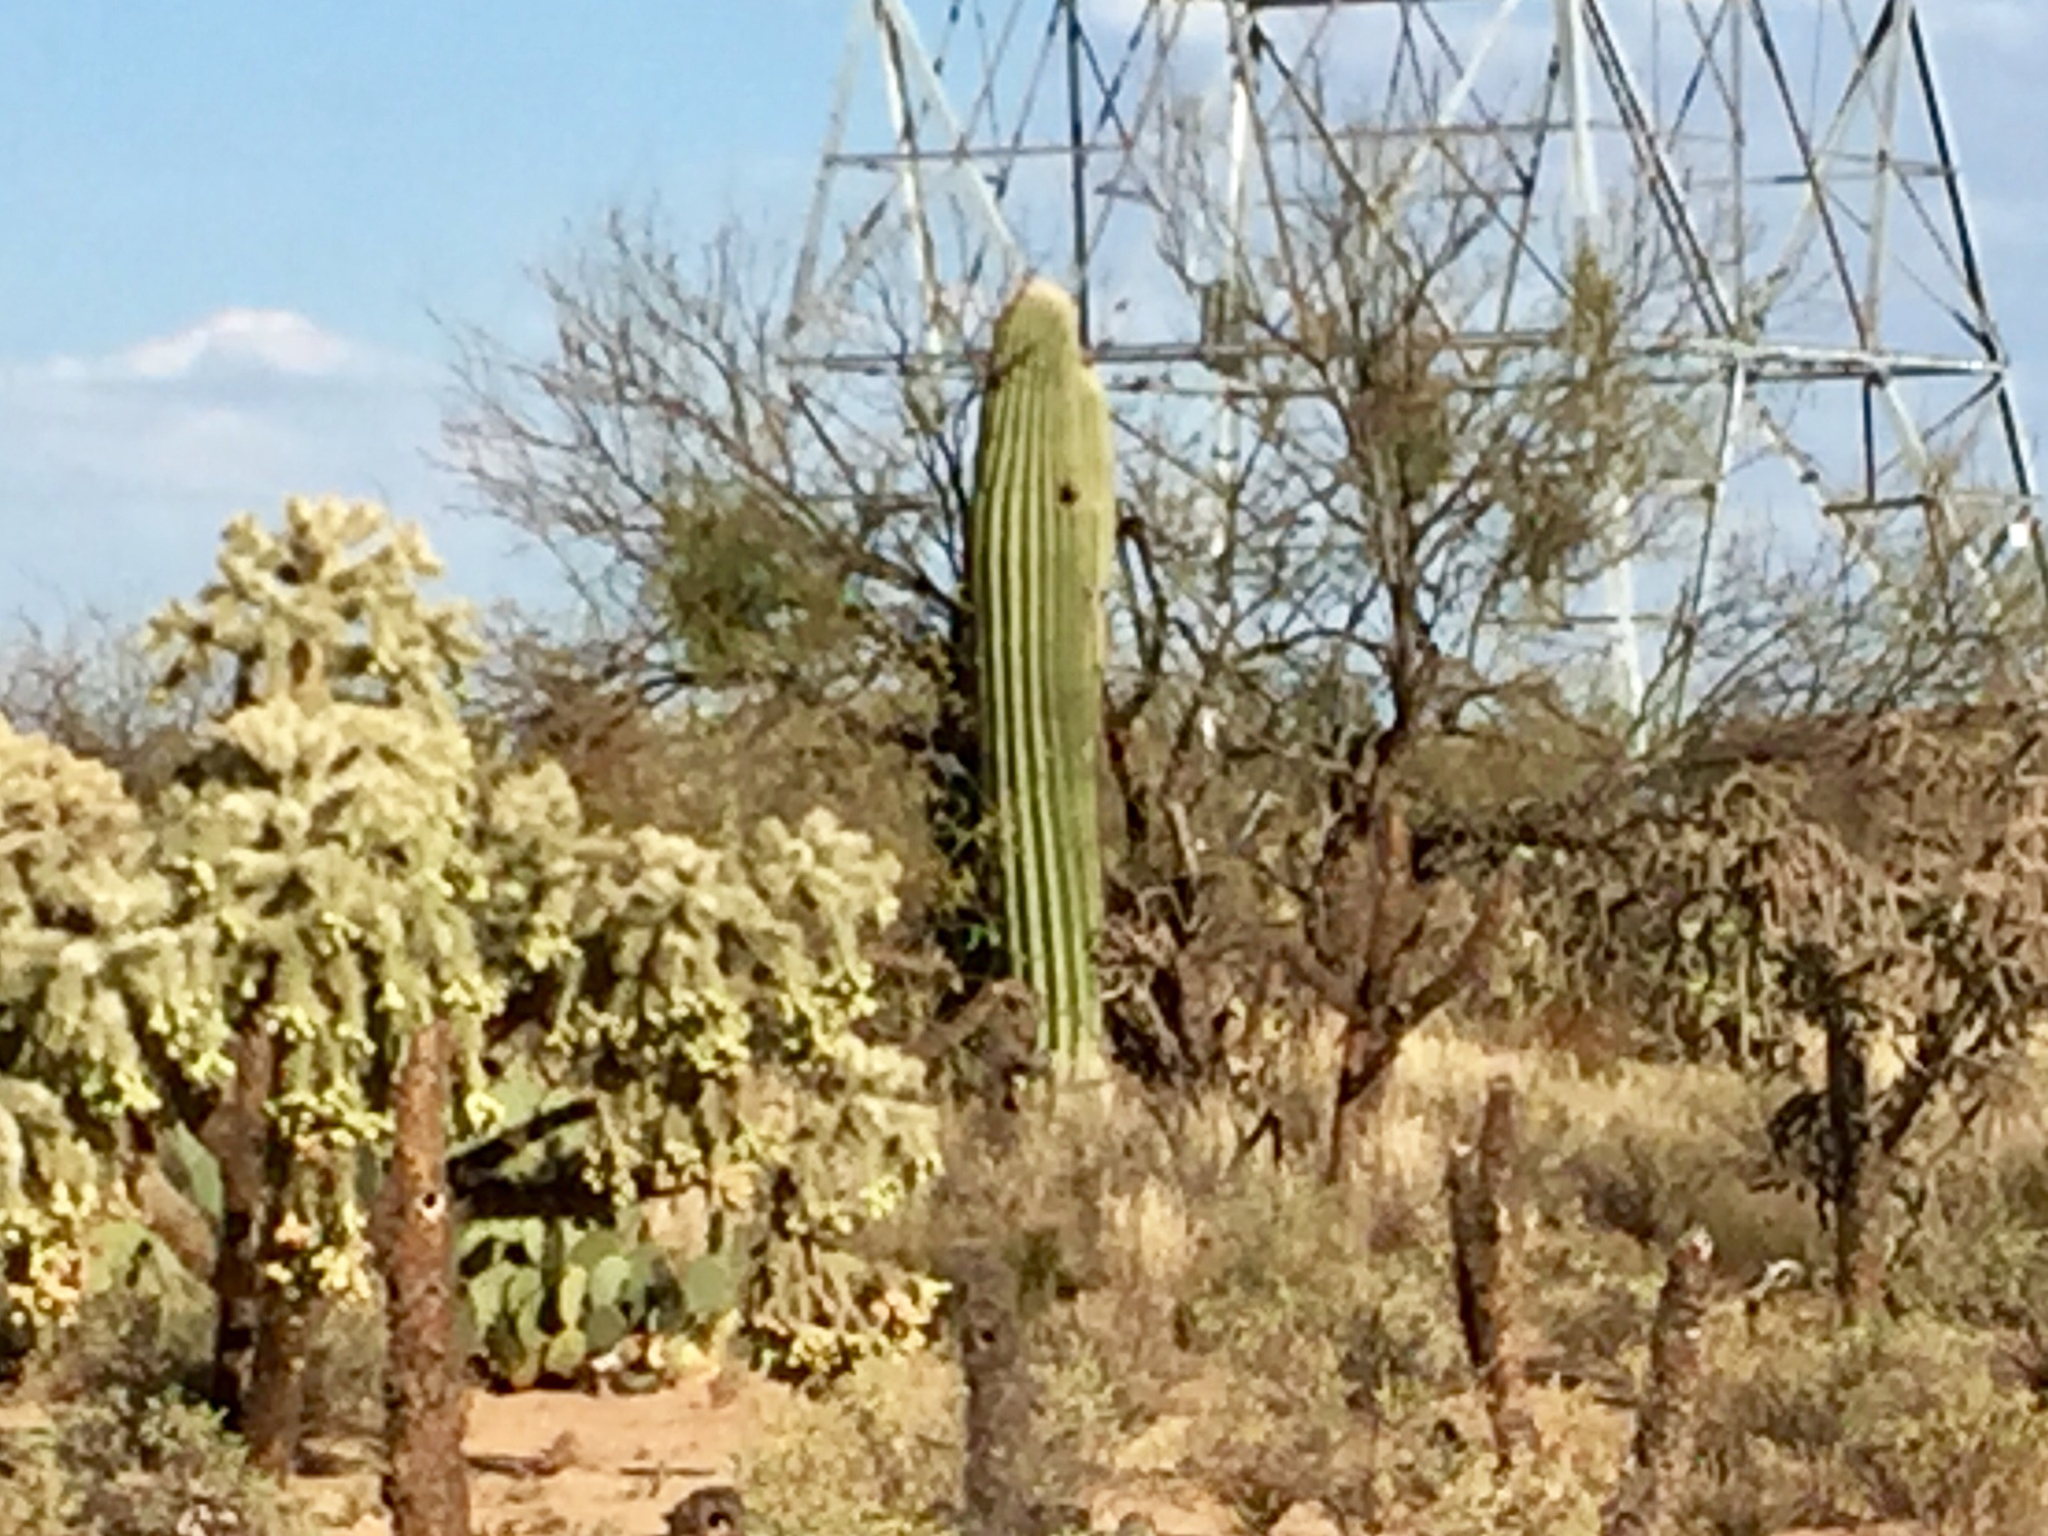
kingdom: Plantae
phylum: Tracheophyta
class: Magnoliopsida
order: Caryophyllales
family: Cactaceae
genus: Cylindropuntia
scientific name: Cylindropuntia fulgida
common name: Jumping cholla
